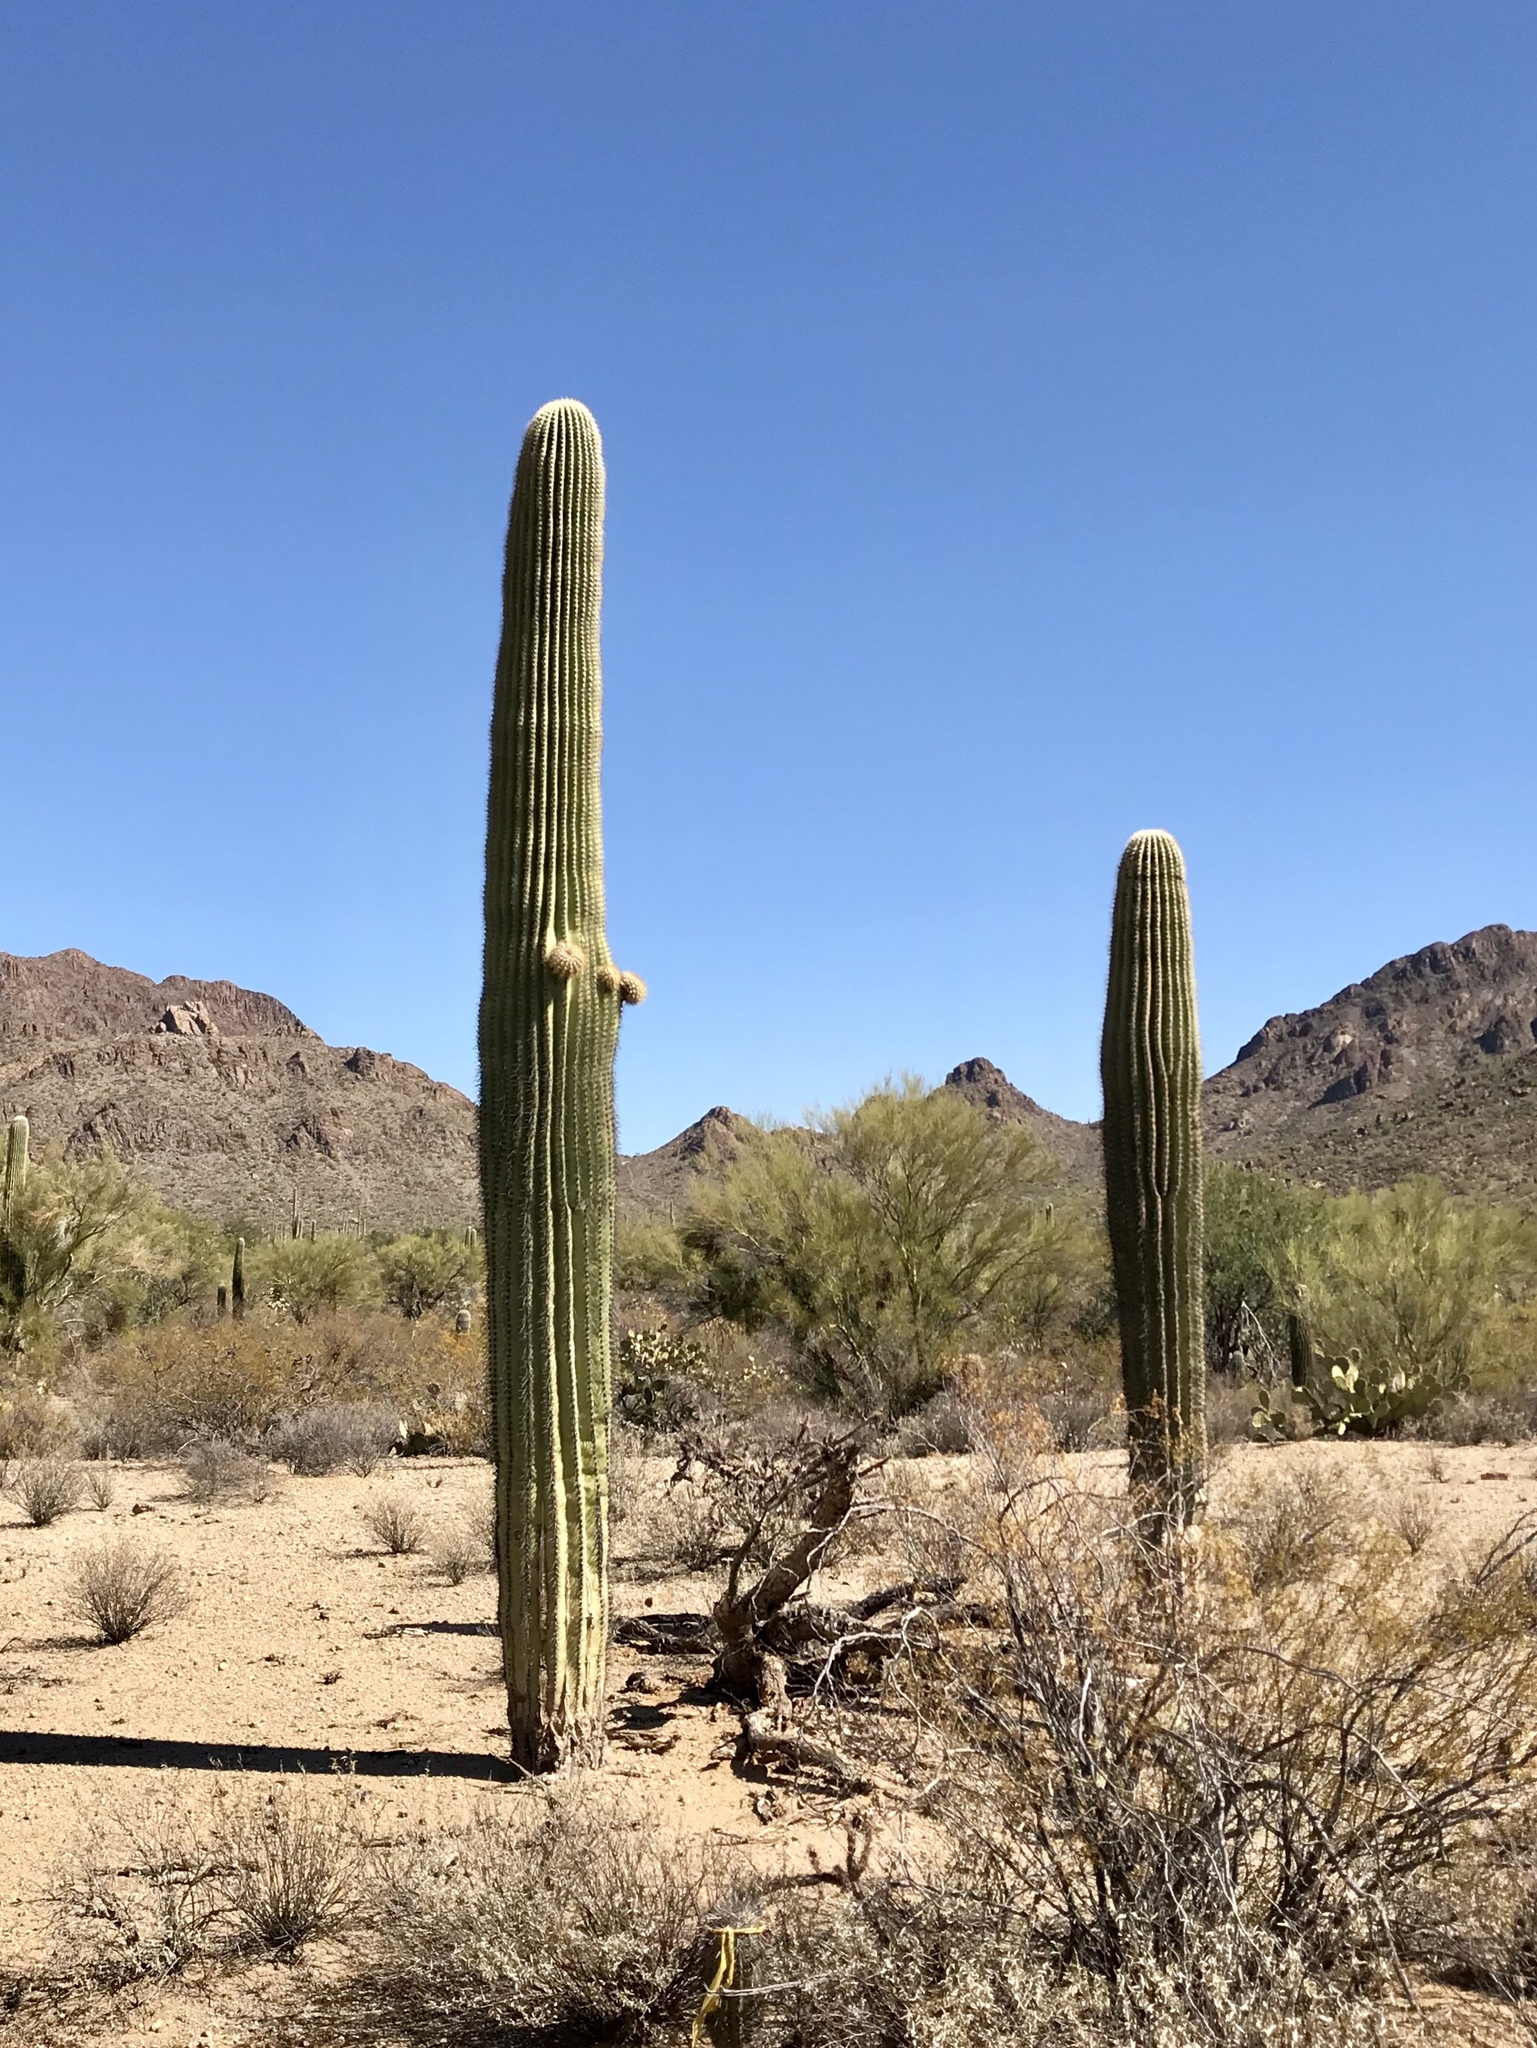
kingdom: Plantae
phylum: Tracheophyta
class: Magnoliopsida
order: Caryophyllales
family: Cactaceae
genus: Carnegiea
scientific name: Carnegiea gigantea
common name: Saguaro
